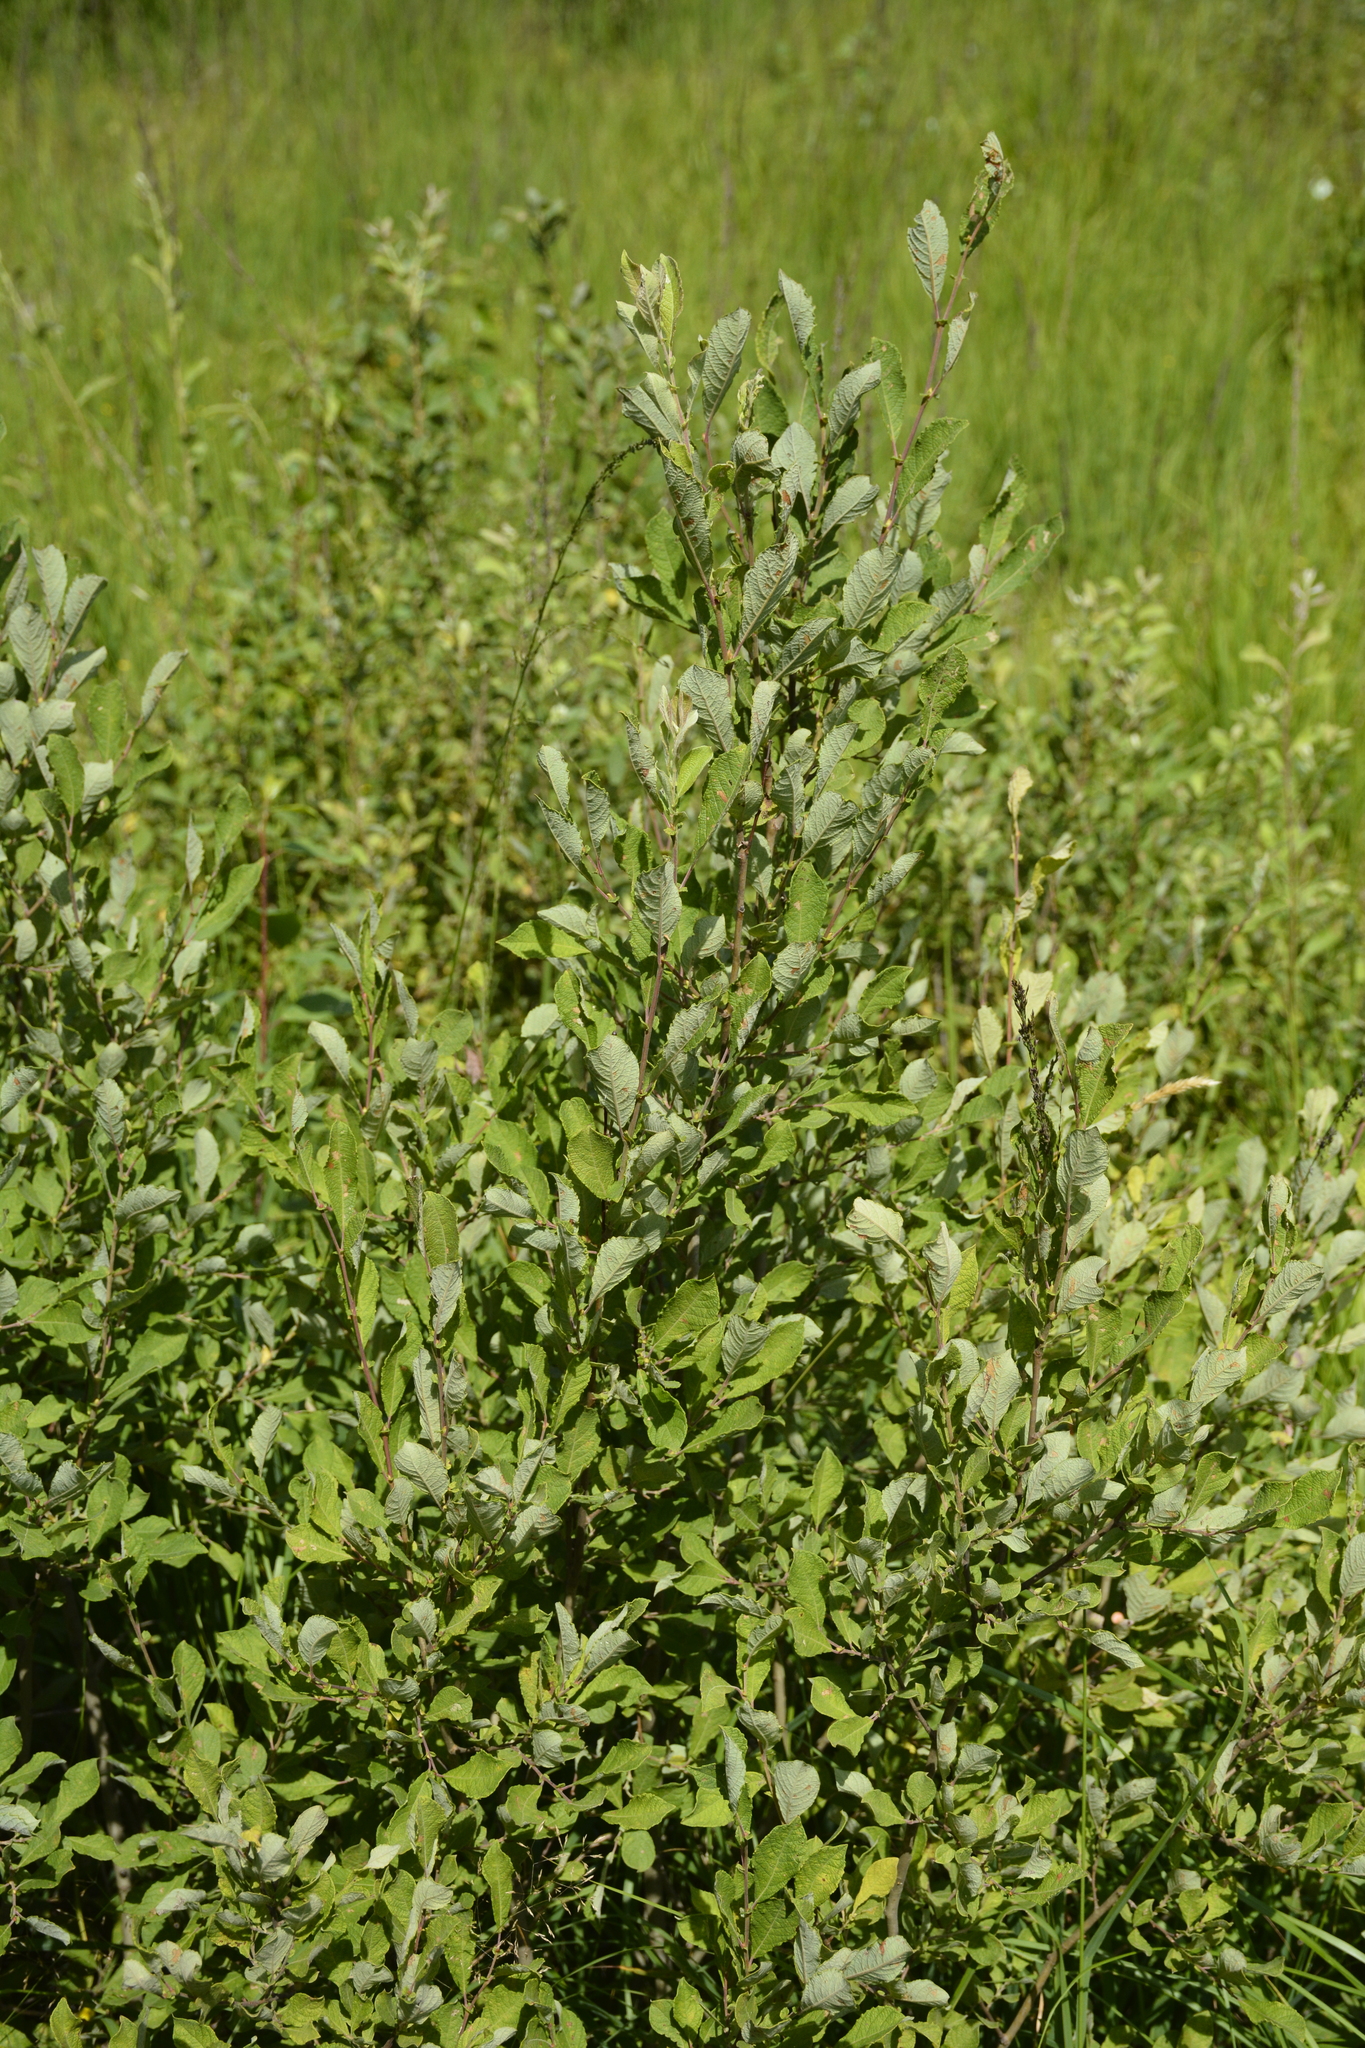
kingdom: Plantae
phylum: Tracheophyta
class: Magnoliopsida
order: Malpighiales
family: Salicaceae
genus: Salix
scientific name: Salix aurita
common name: Eared willow
